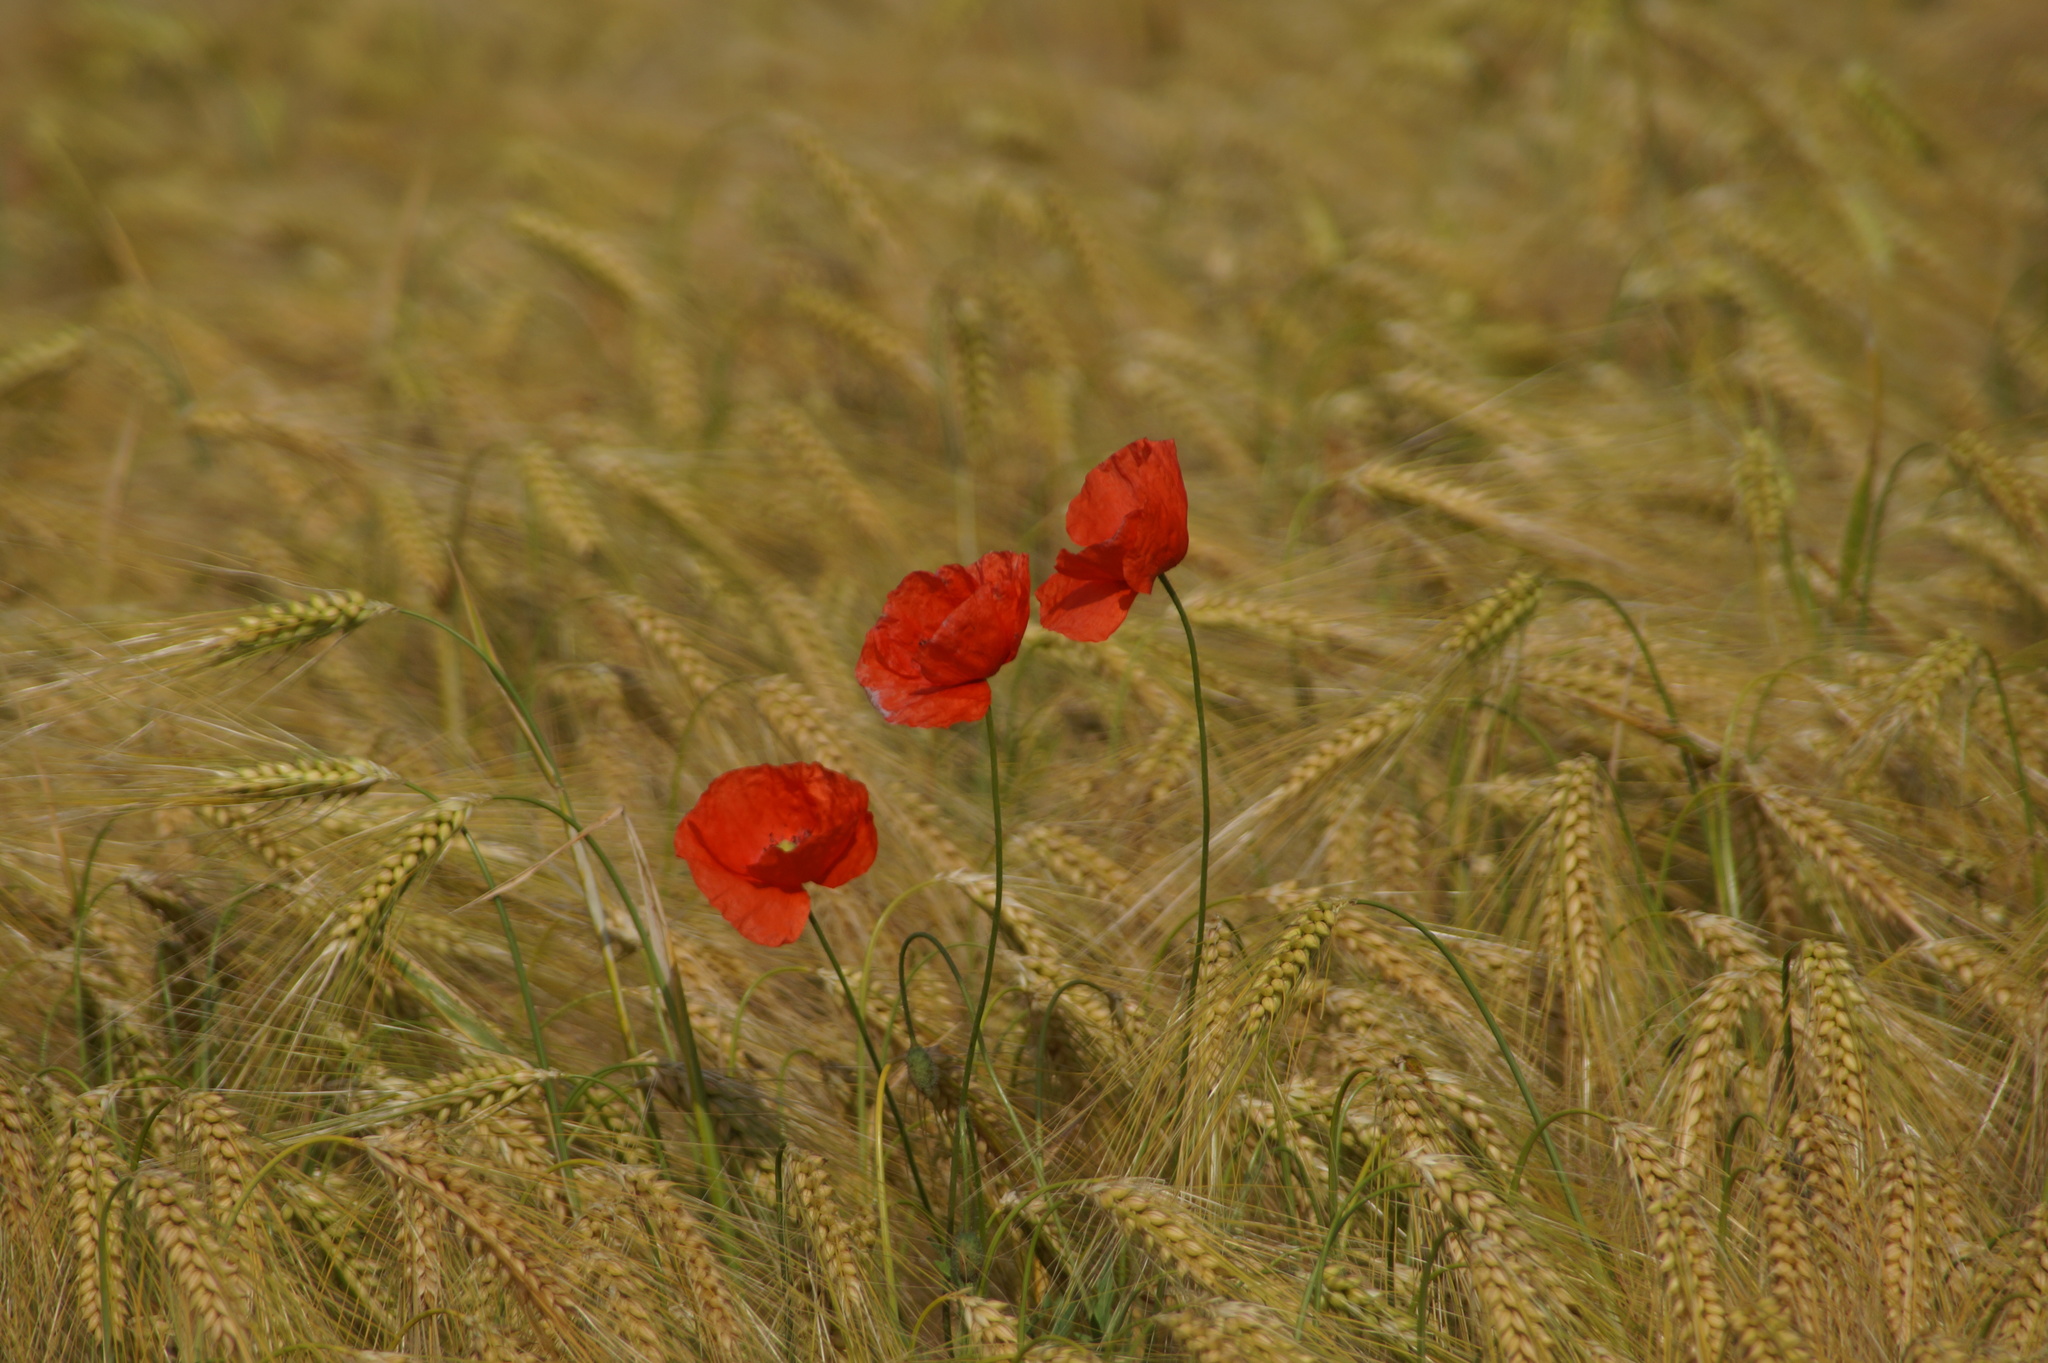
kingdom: Plantae
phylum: Tracheophyta
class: Magnoliopsida
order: Ranunculales
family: Papaveraceae
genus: Papaver
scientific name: Papaver rhoeas
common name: Corn poppy
